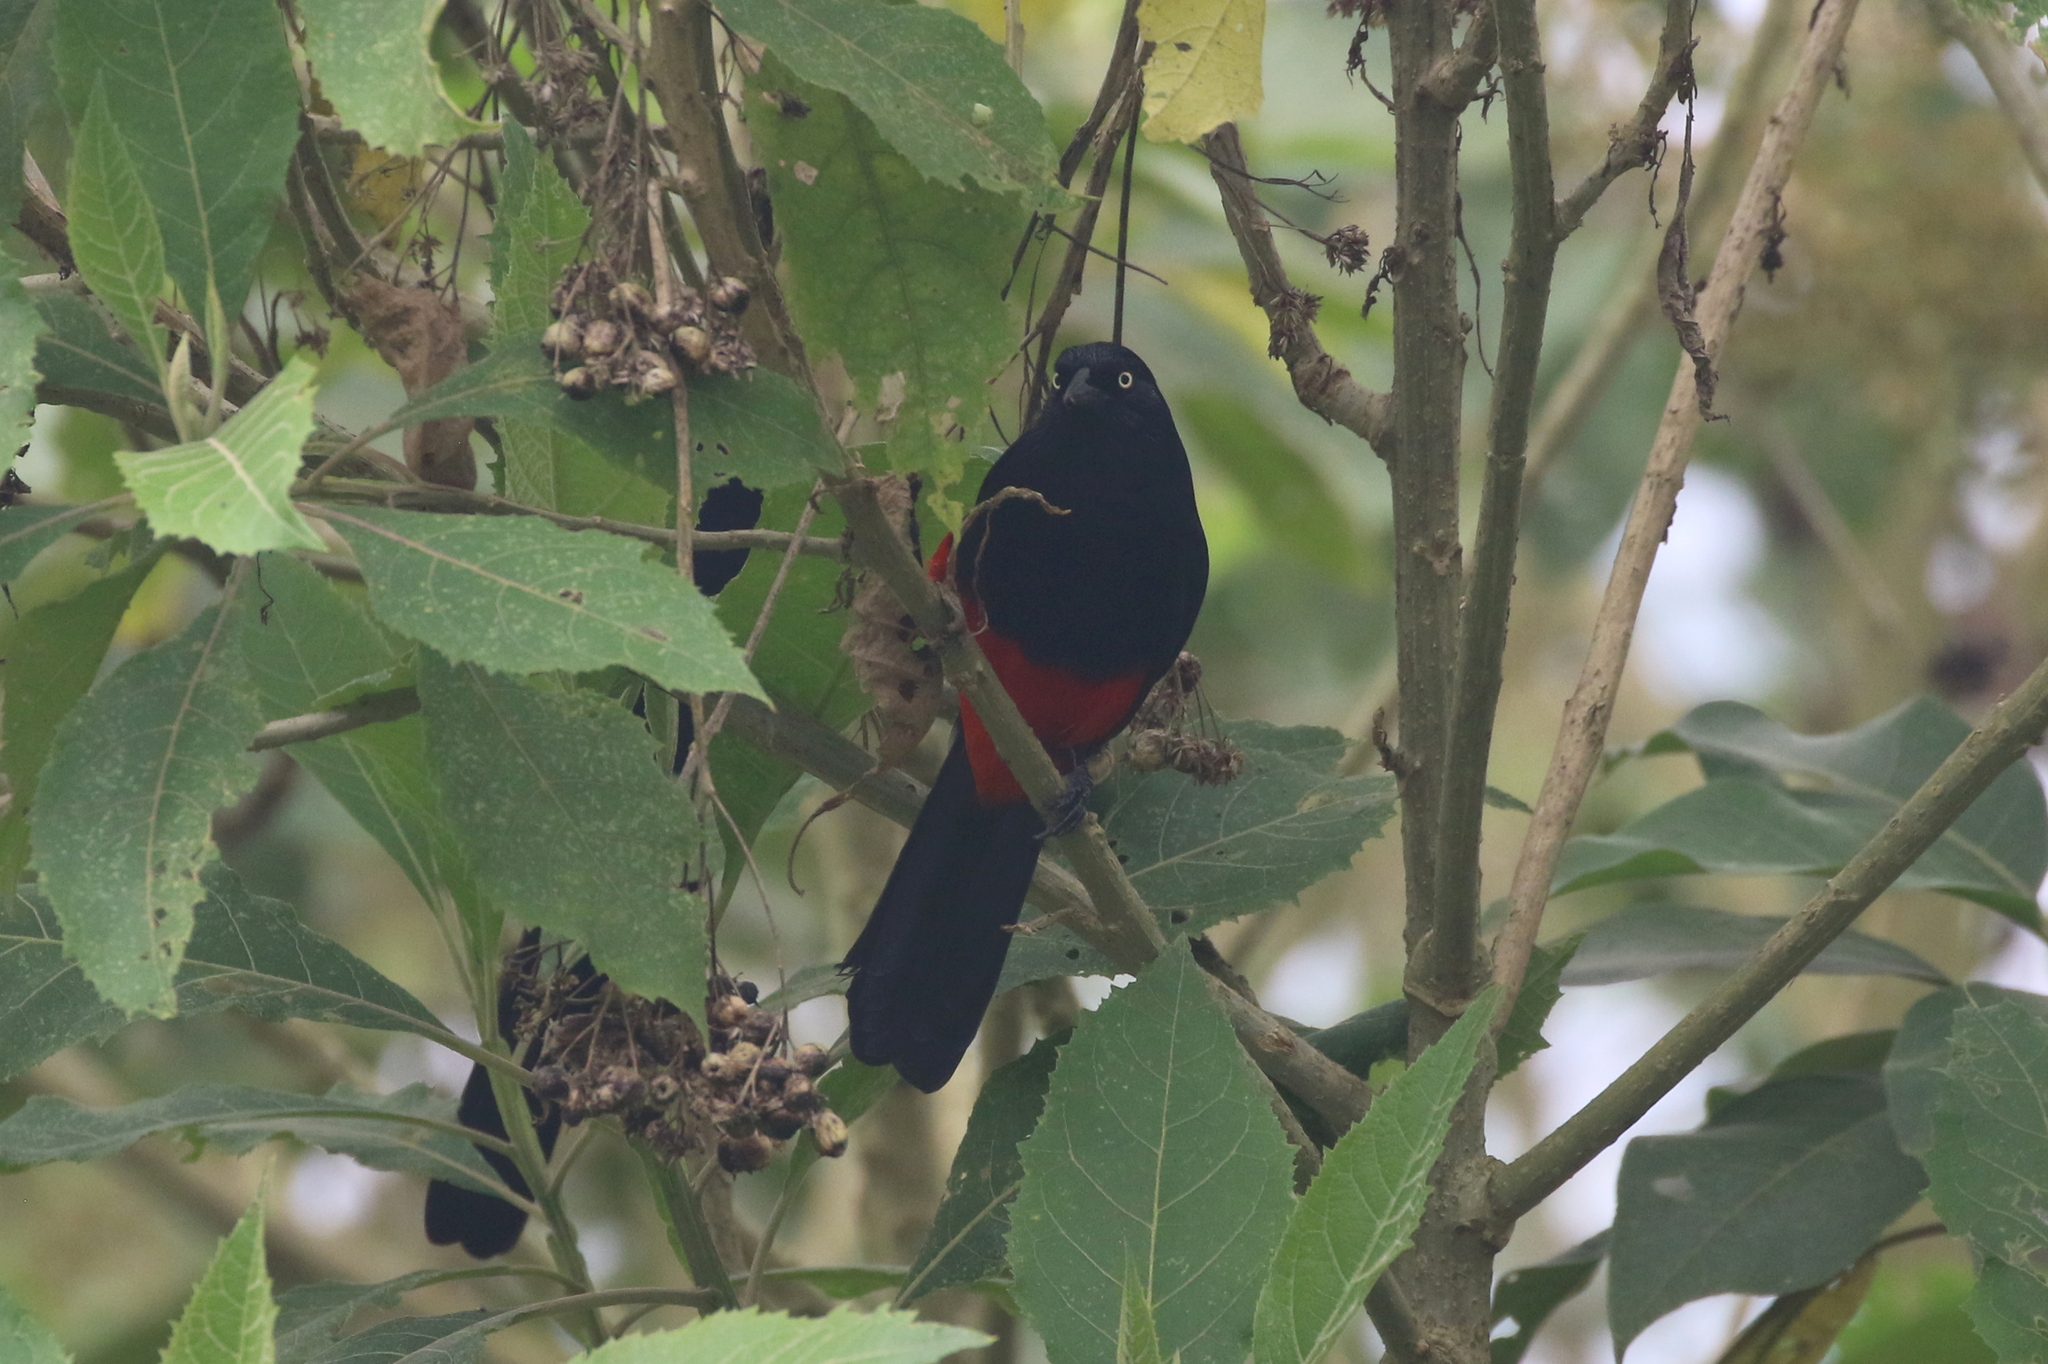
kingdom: Animalia
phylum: Chordata
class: Aves
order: Passeriformes
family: Icteridae
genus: Hypopyrrhus
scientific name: Hypopyrrhus pyrohypogaster
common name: Red-bellied grackle
